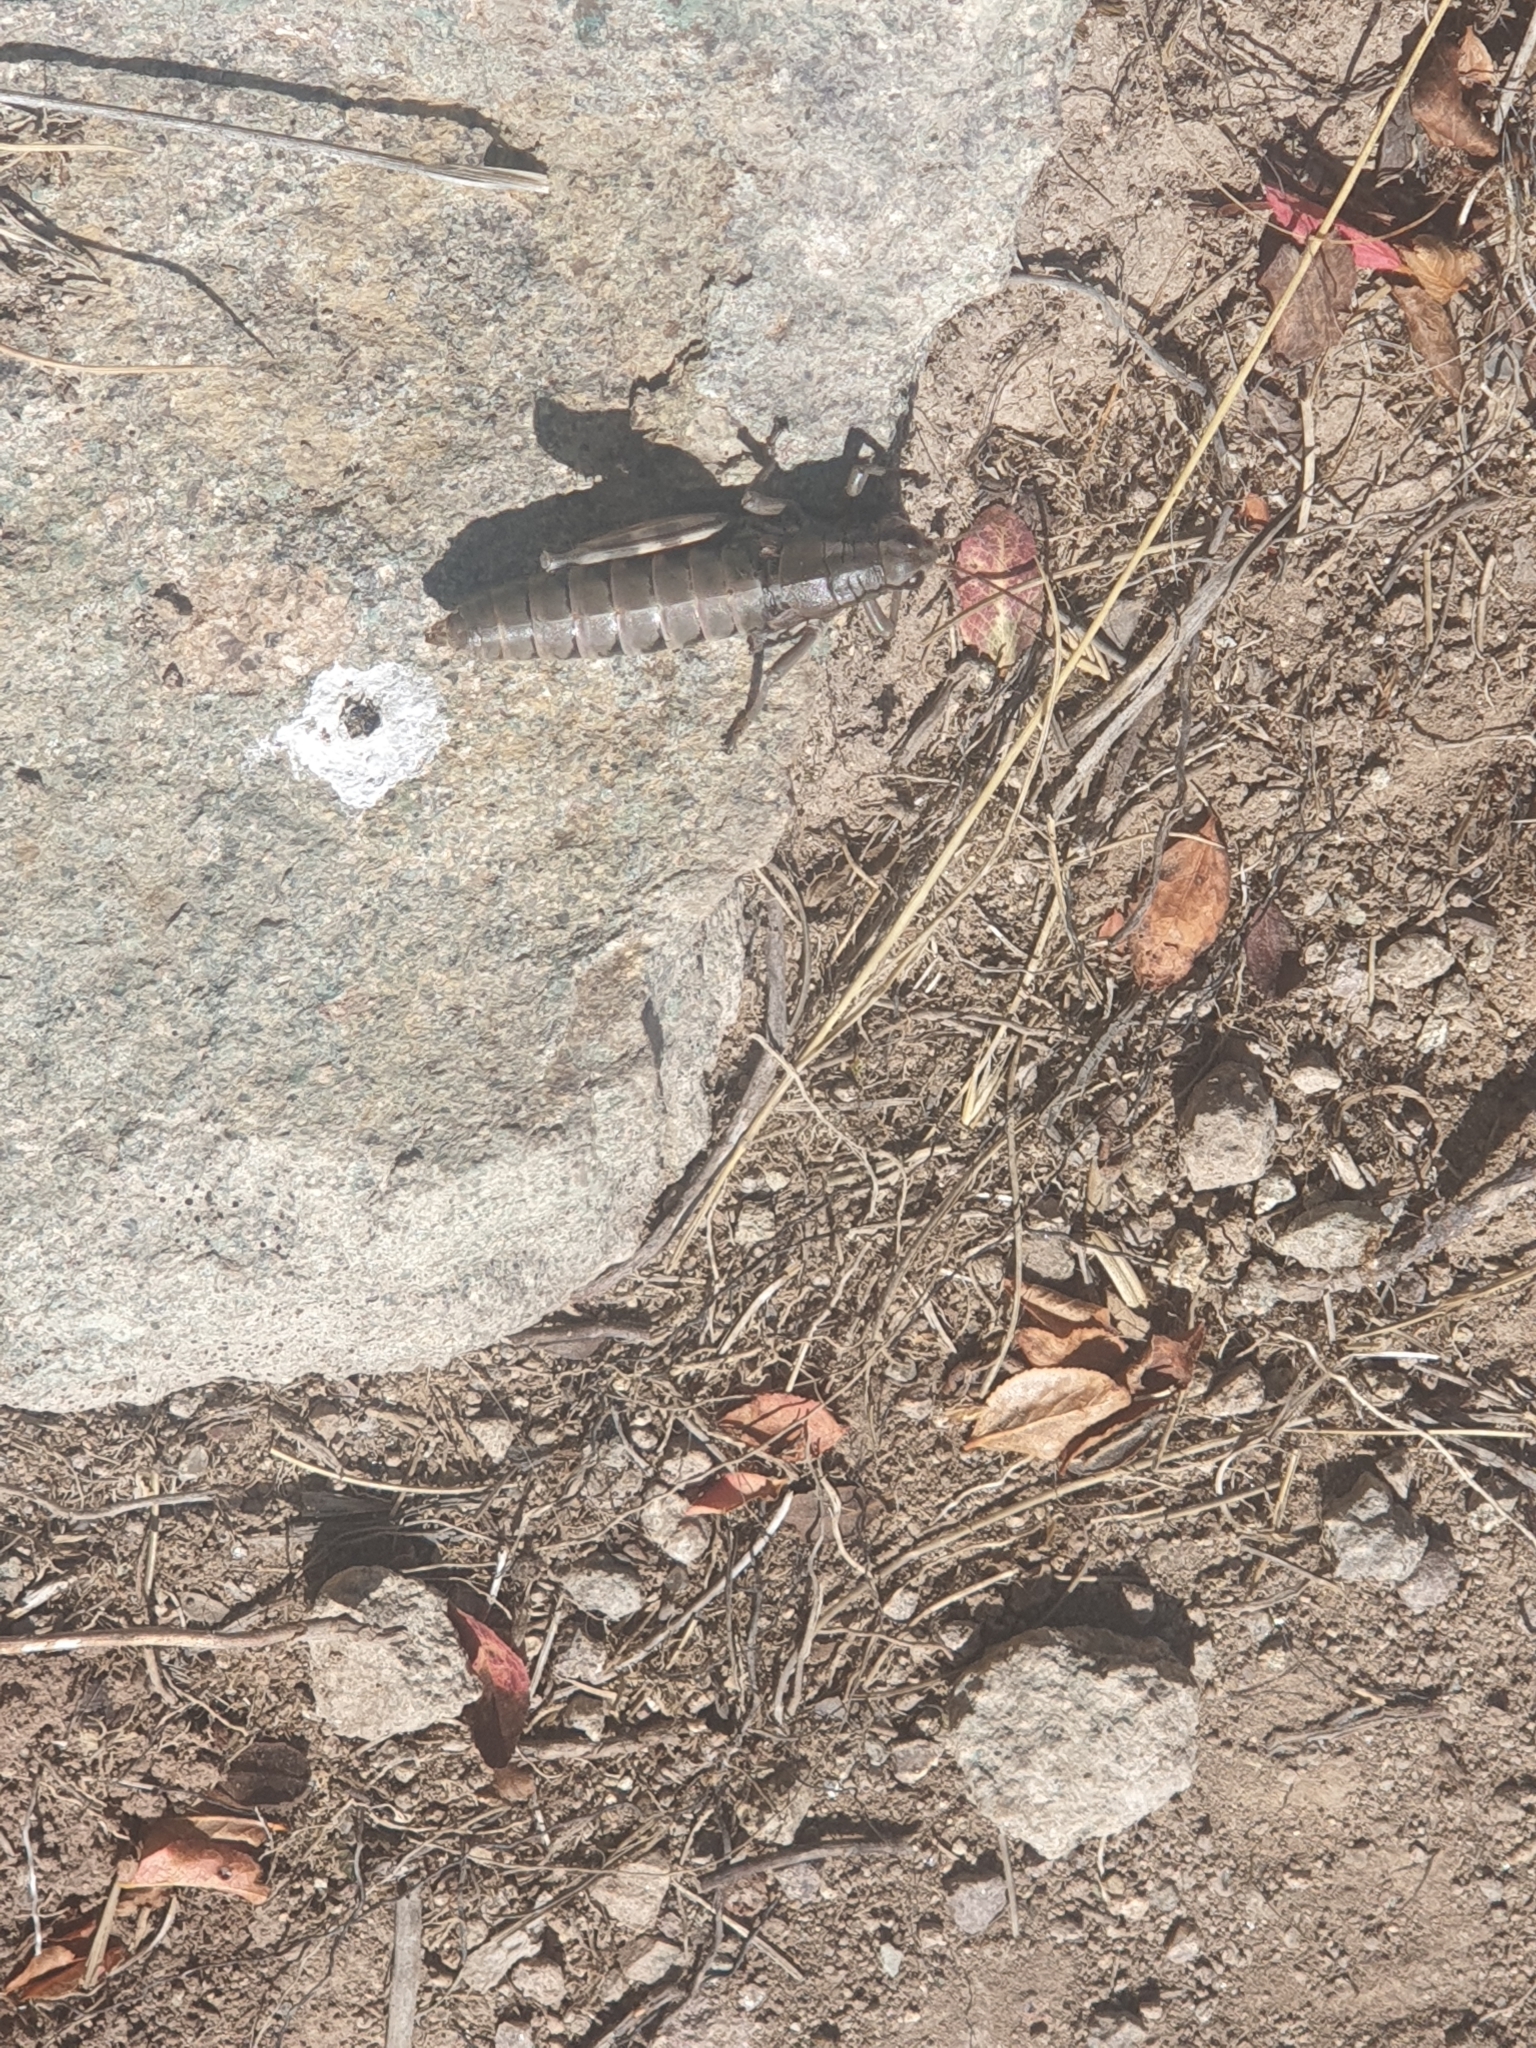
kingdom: Animalia
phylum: Arthropoda
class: Insecta
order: Orthoptera
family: Acrididae
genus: Podisma
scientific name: Podisma pedestris
